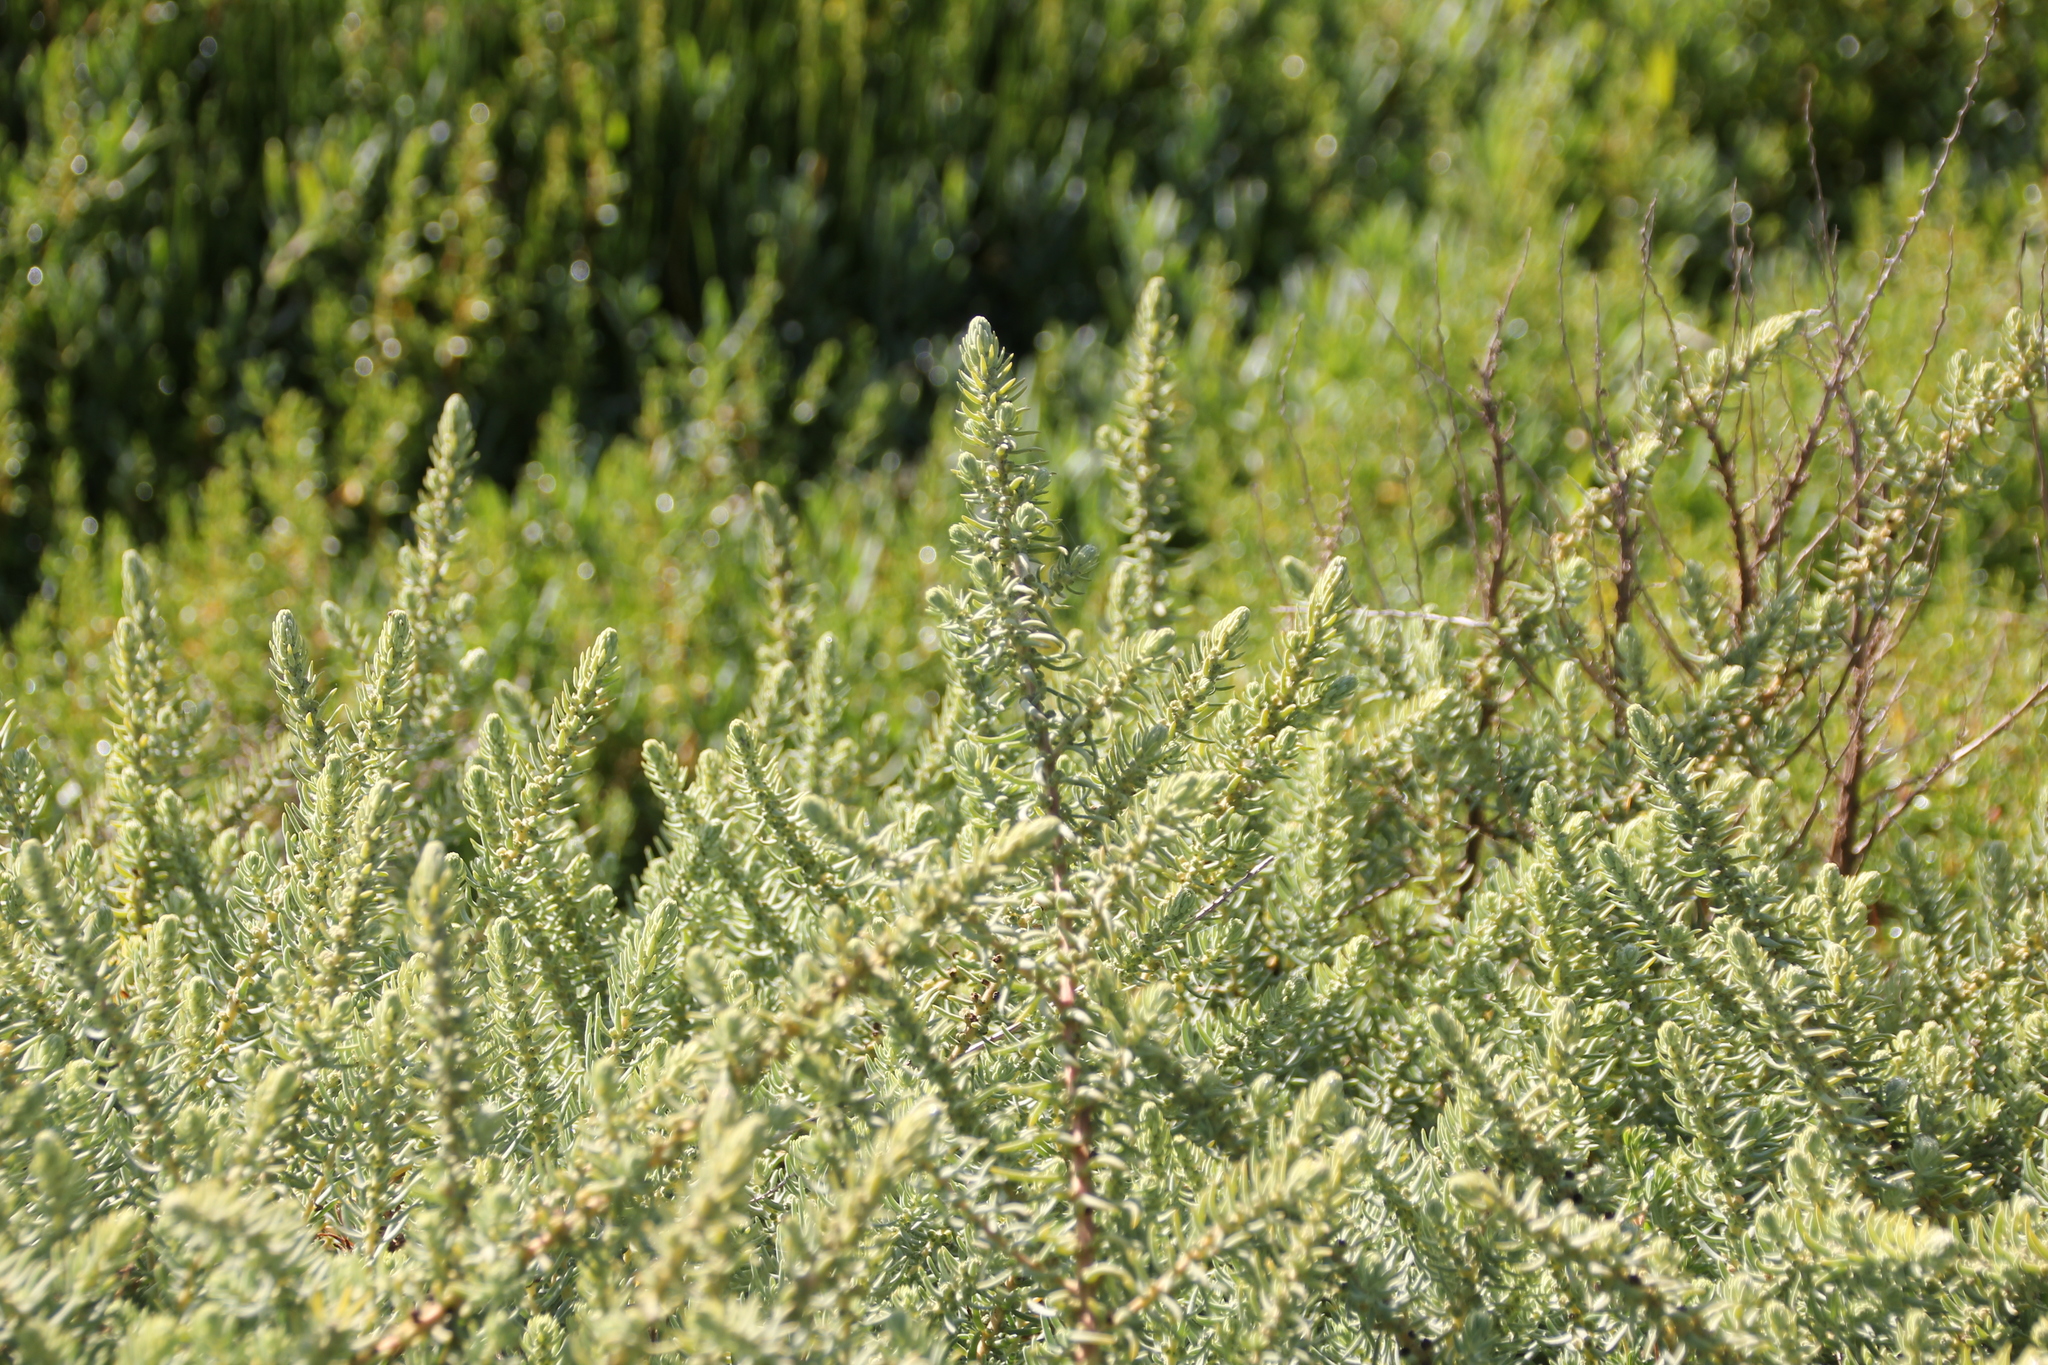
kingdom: Plantae
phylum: Tracheophyta
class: Magnoliopsida
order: Caryophyllales
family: Amaranthaceae
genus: Suaeda
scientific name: Suaeda taxifolia
